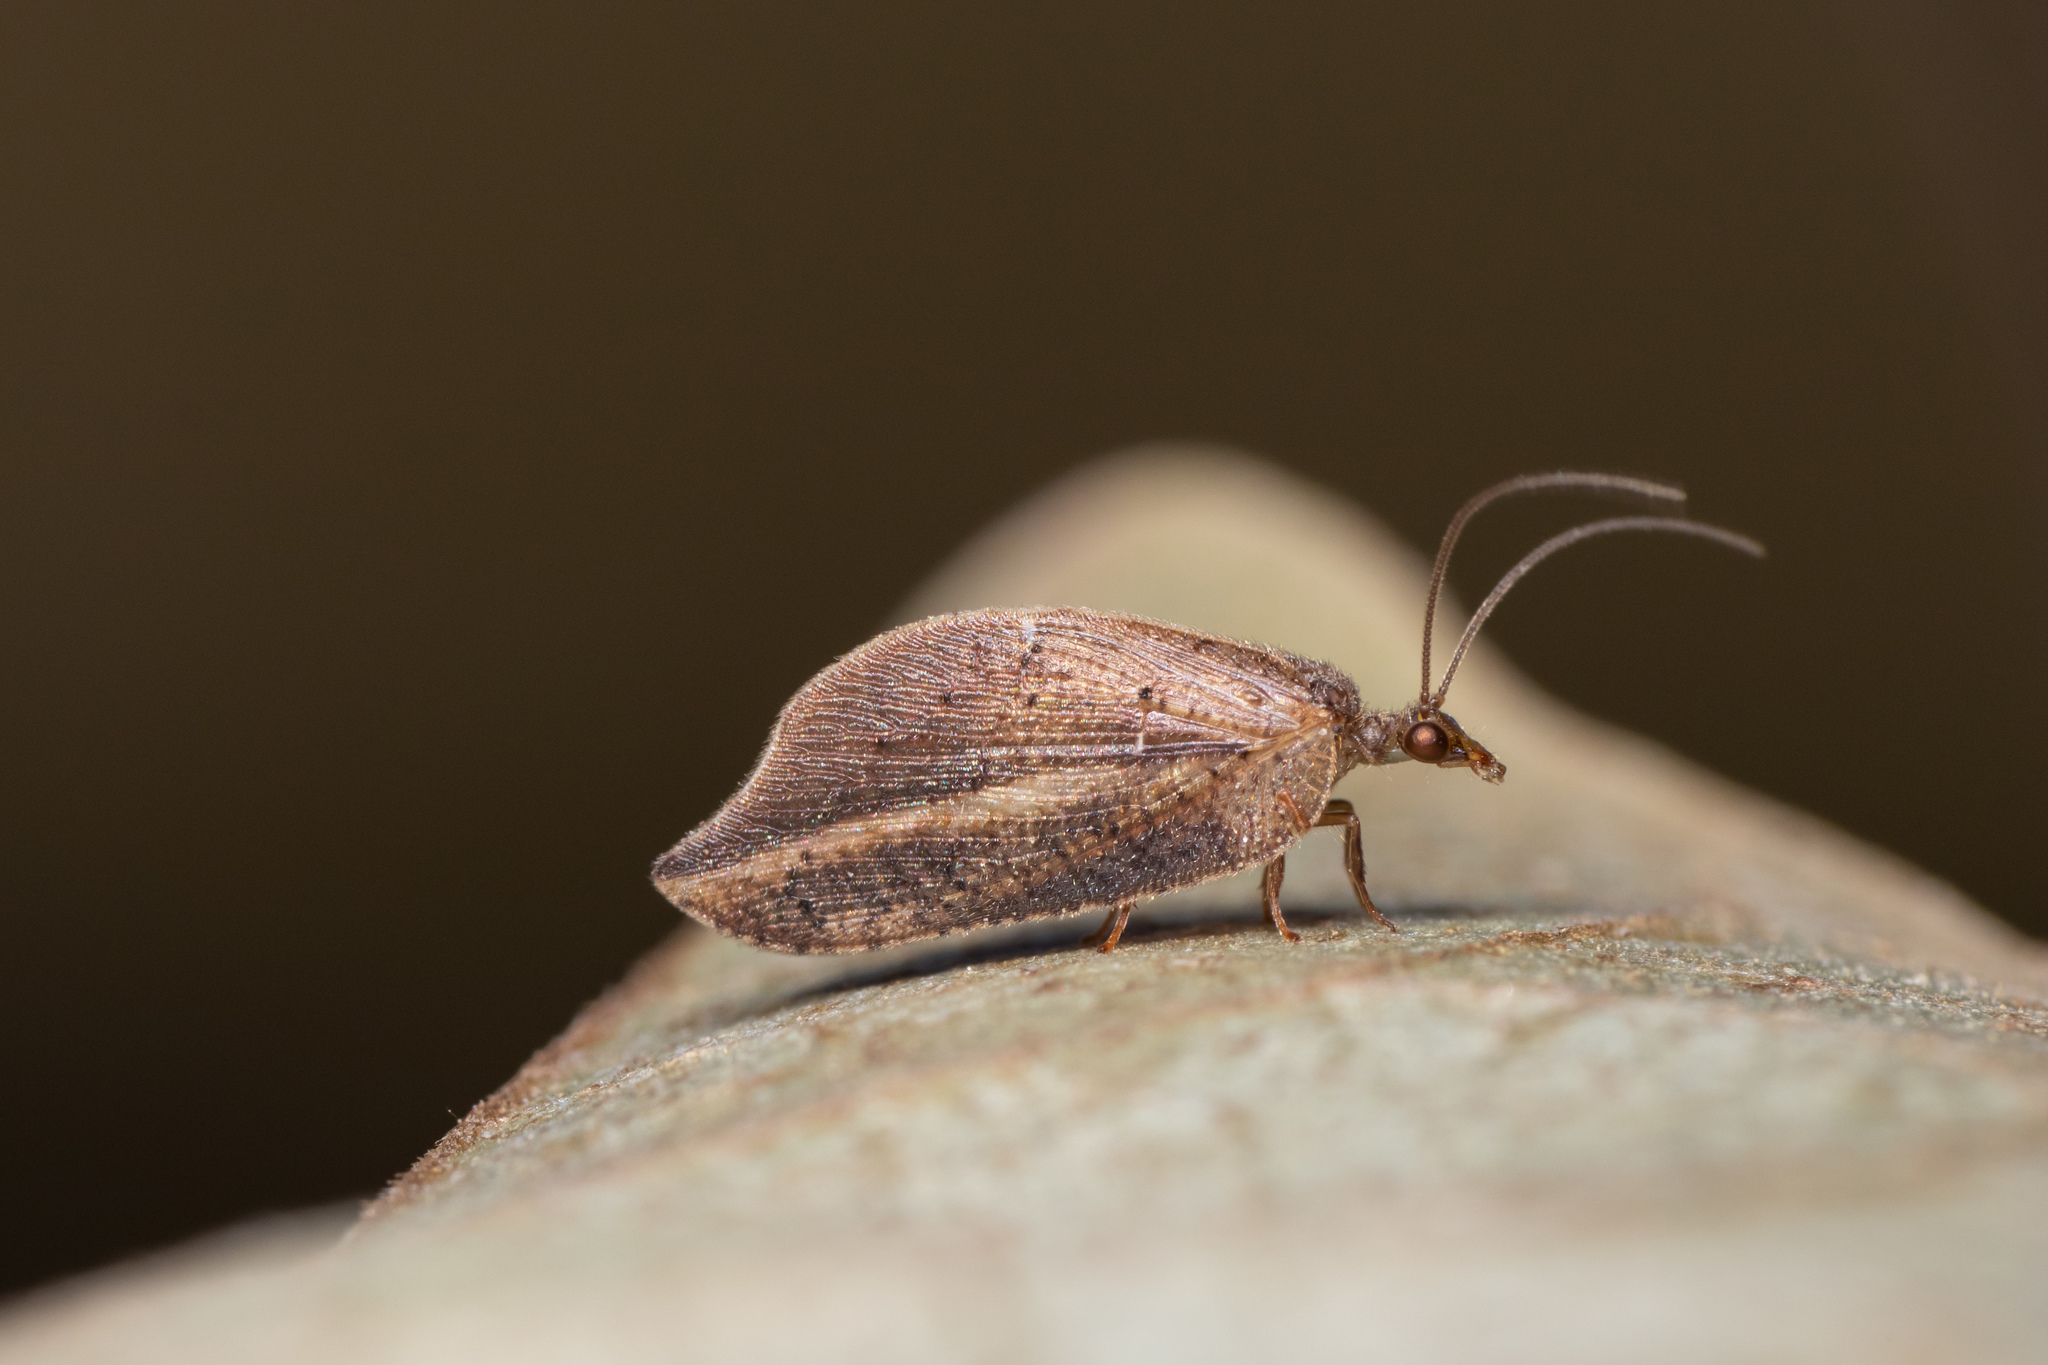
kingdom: Animalia
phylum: Arthropoda
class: Insecta
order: Neuroptera
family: Hemerobiidae
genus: Drepanacra
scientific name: Drepanacra binocula
